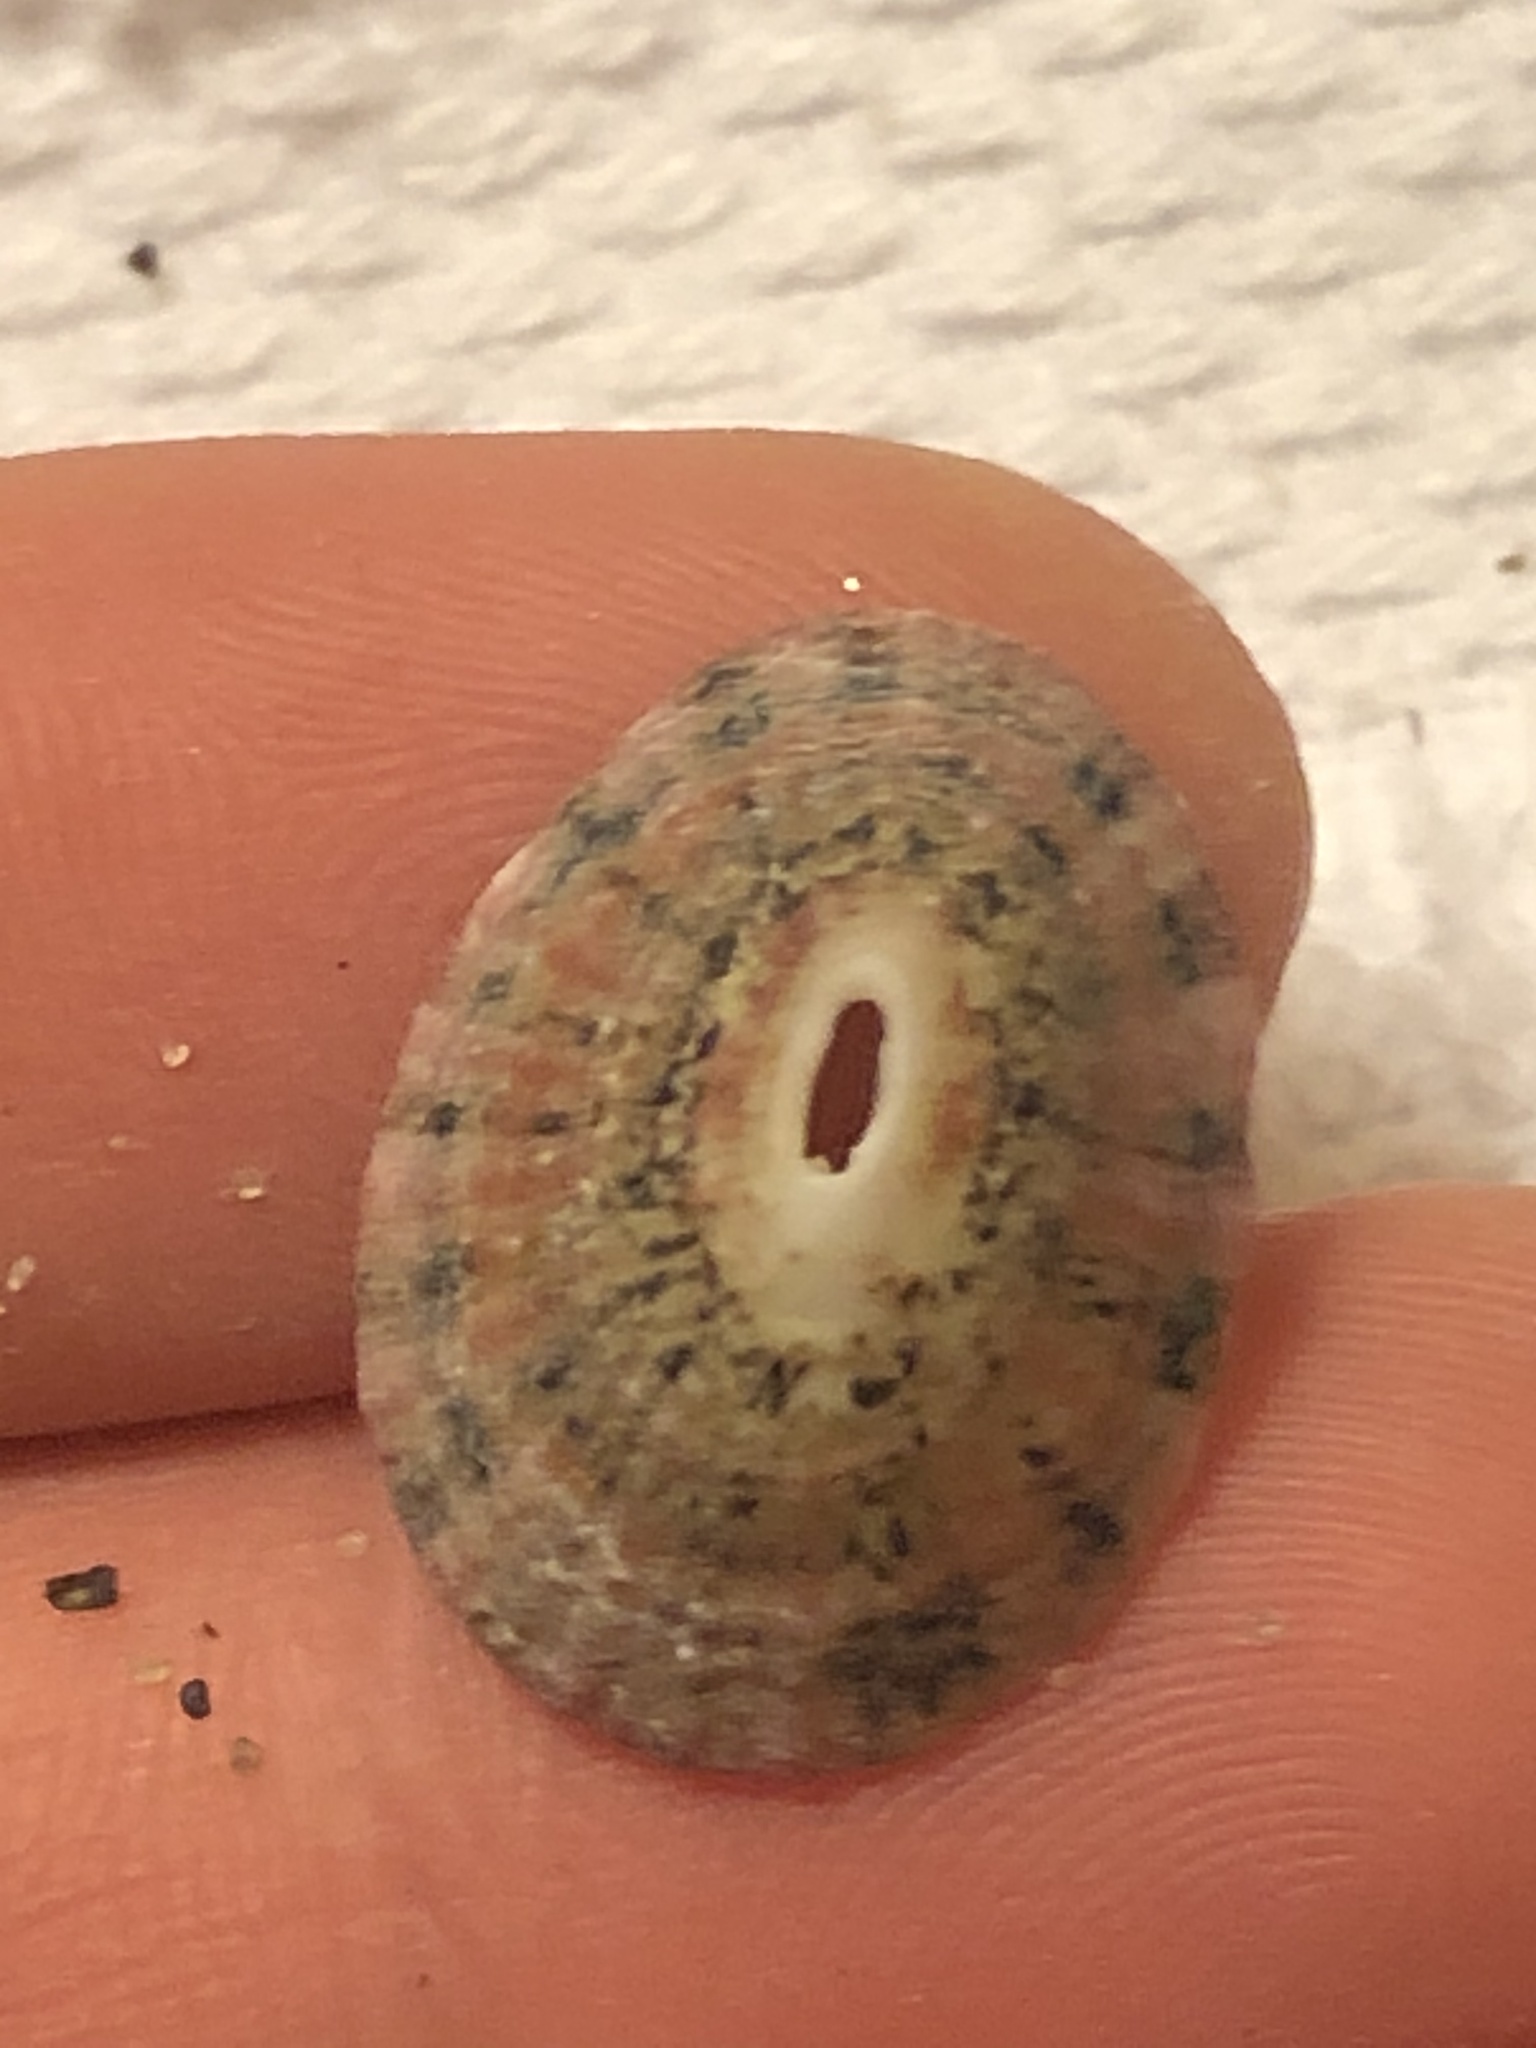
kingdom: Animalia
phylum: Mollusca
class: Gastropoda
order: Lepetellida
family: Fissurellidae
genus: Fissurella
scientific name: Fissurella volcano
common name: Volcano keyhole limpet
